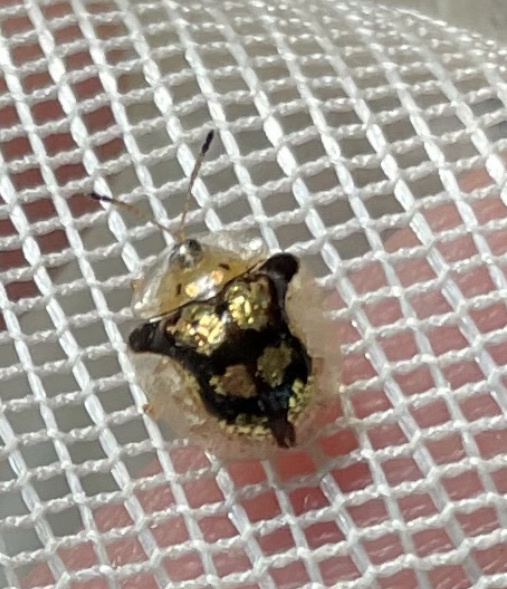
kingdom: Animalia
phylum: Arthropoda
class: Insecta
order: Coleoptera
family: Chrysomelidae
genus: Deloyala
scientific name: Deloyala guttata
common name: Mottled tortoise beetle
